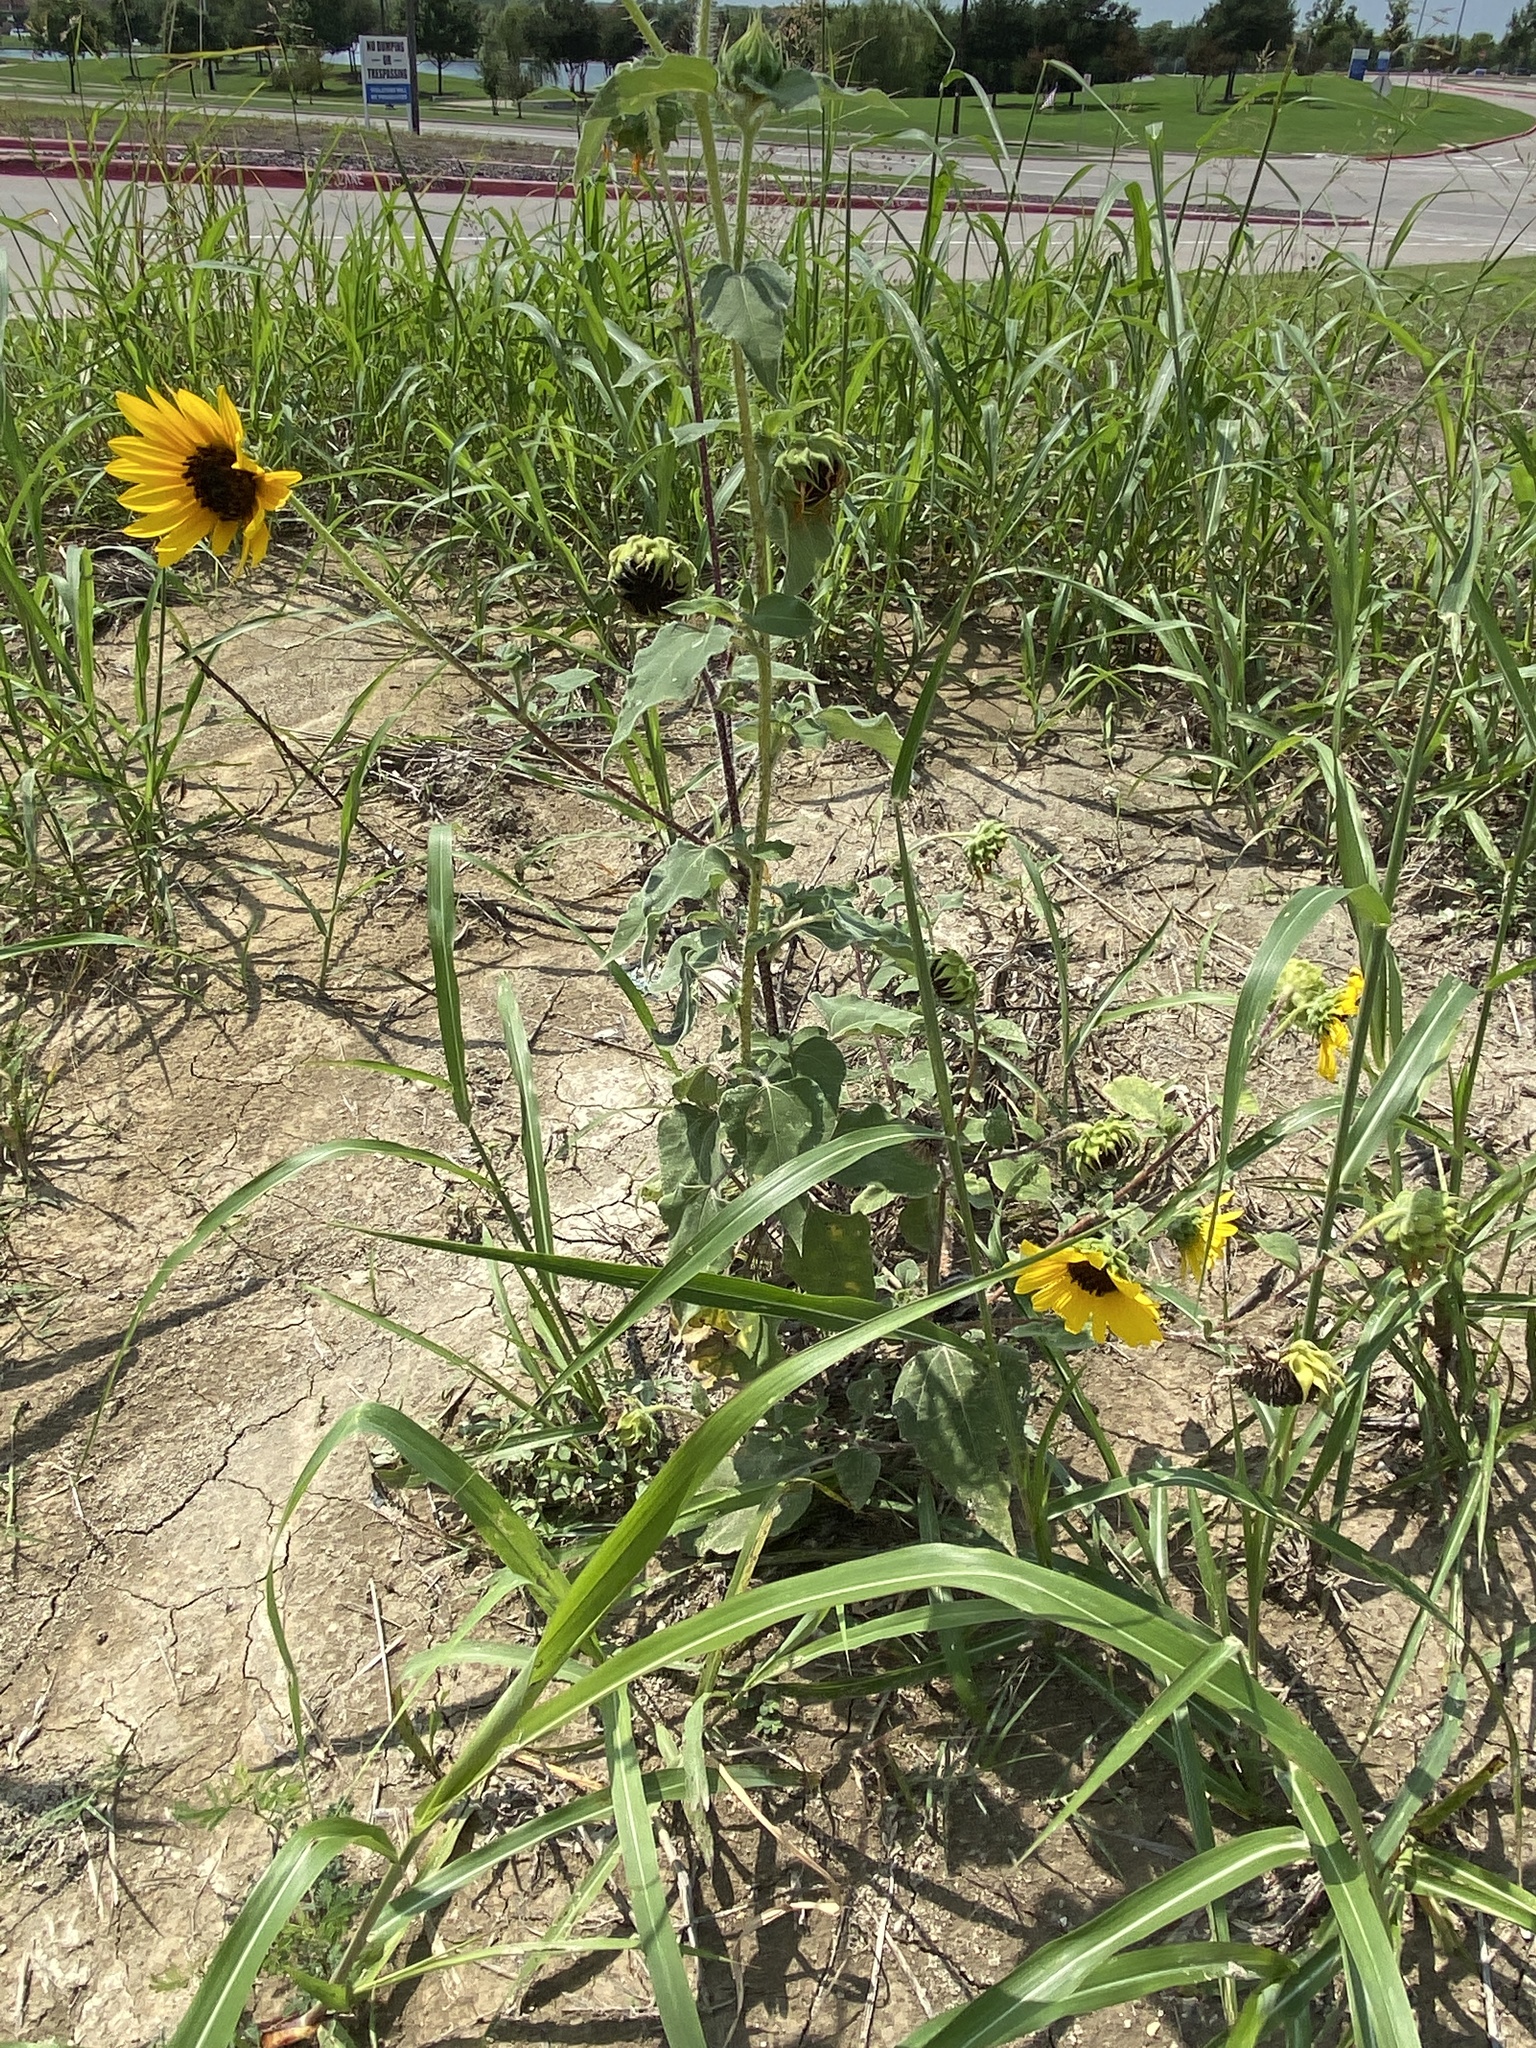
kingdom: Plantae
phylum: Tracheophyta
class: Magnoliopsida
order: Asterales
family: Asteraceae
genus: Helianthus
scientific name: Helianthus annuus
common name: Sunflower
